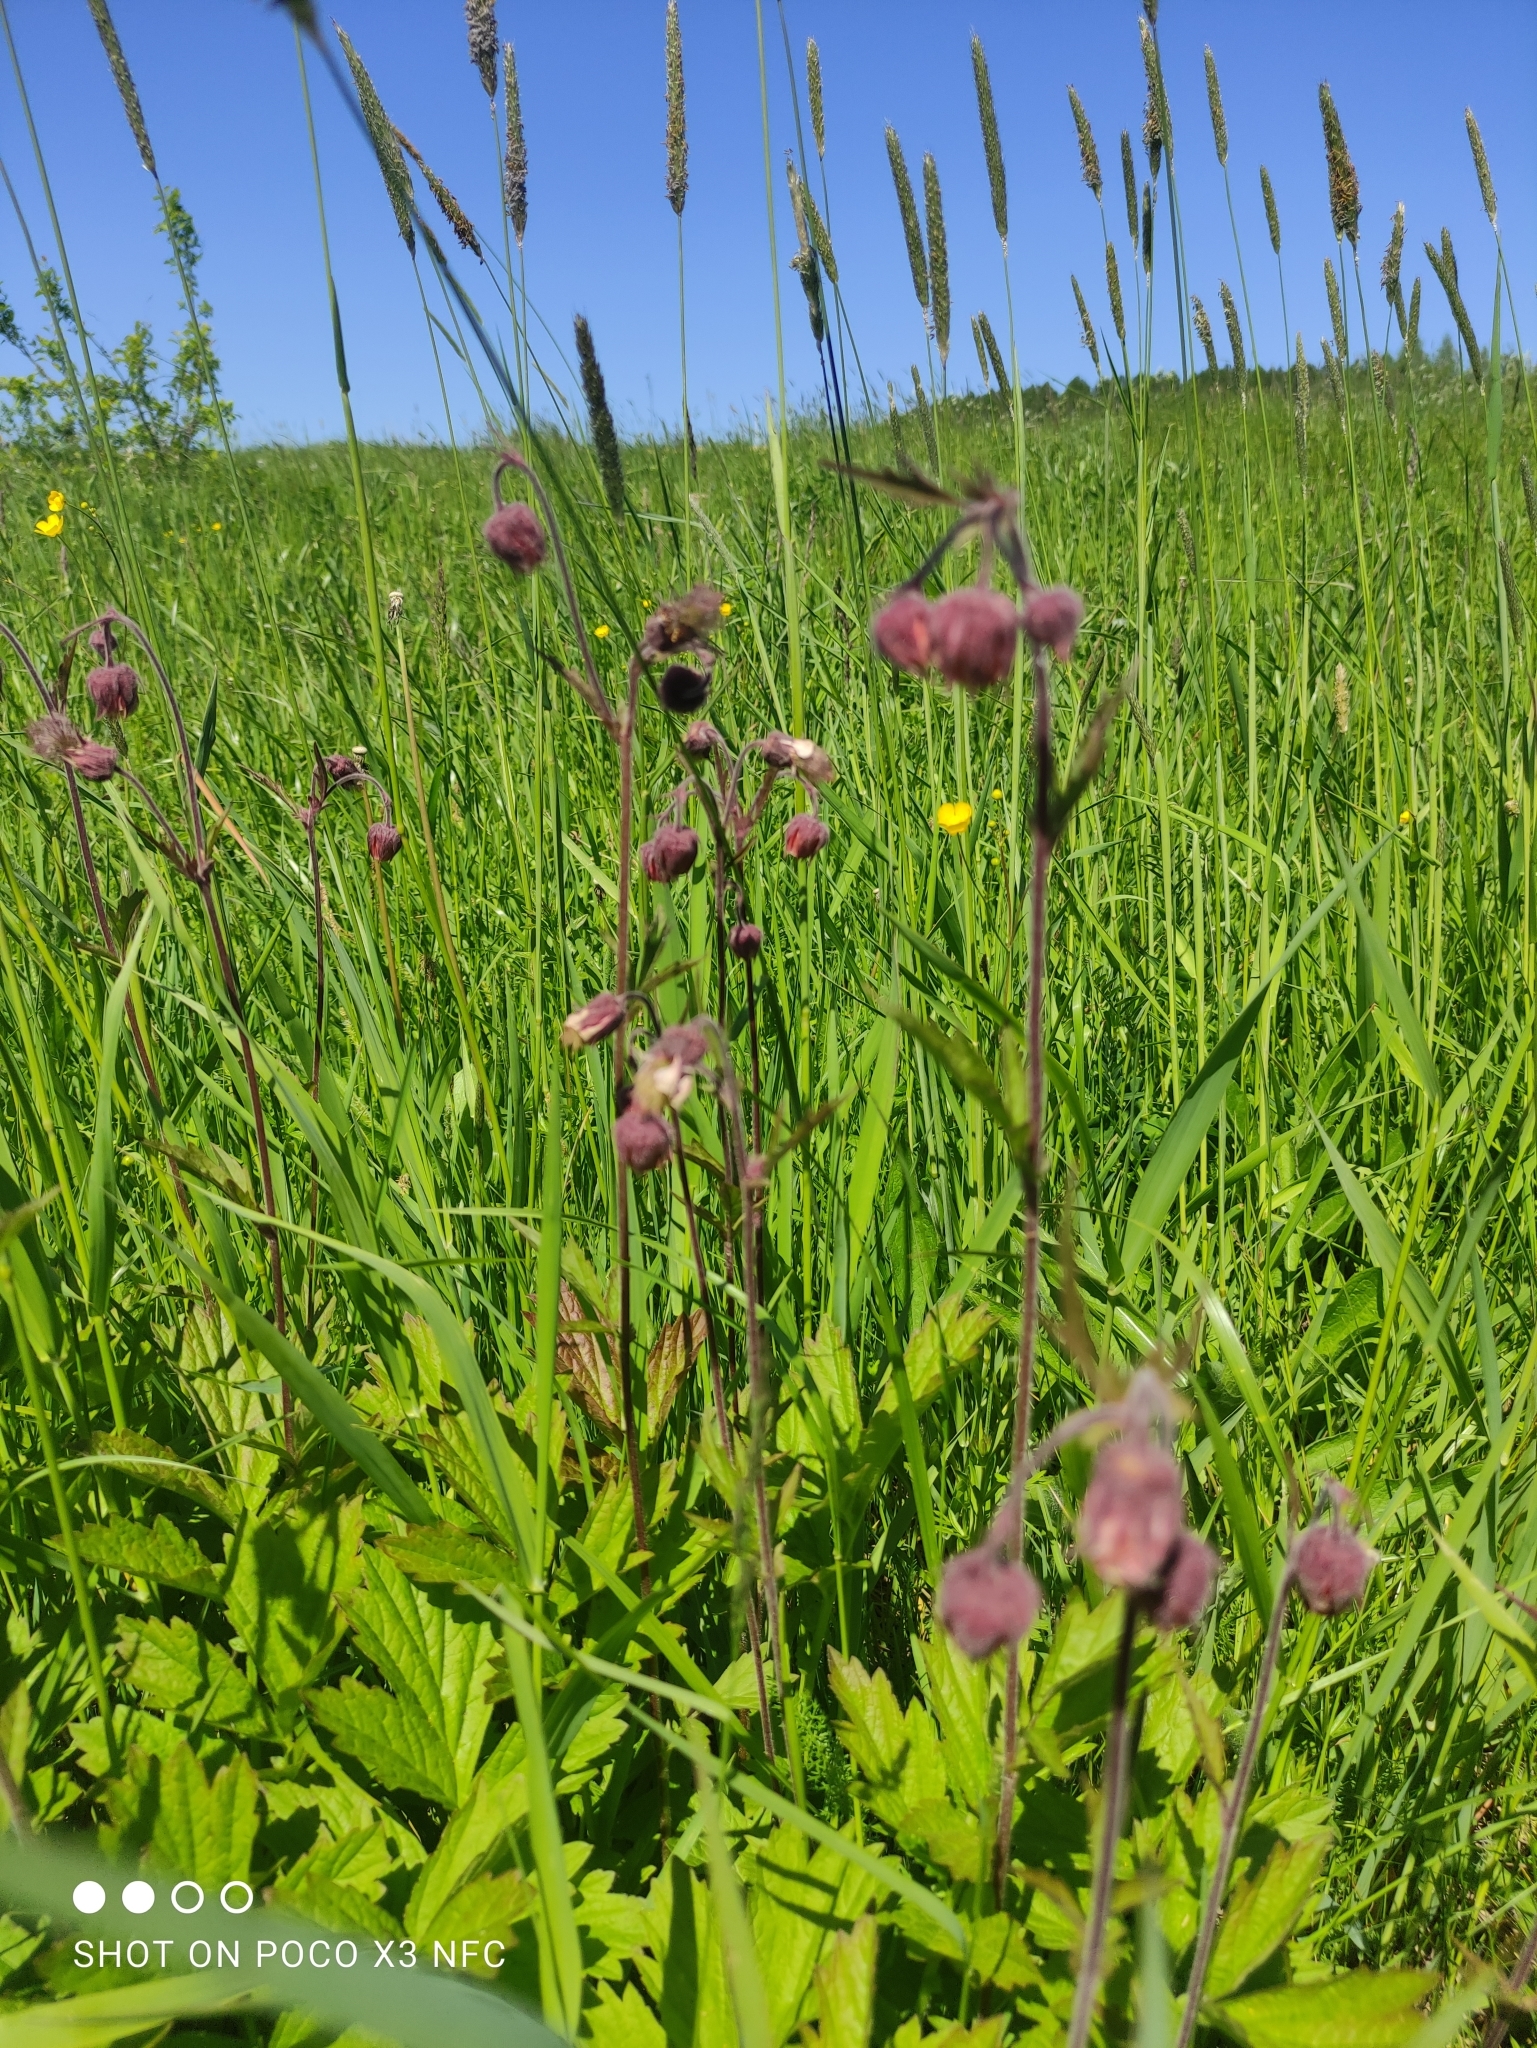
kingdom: Plantae
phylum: Tracheophyta
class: Magnoliopsida
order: Rosales
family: Rosaceae
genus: Geum
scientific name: Geum rivale
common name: Water avens
